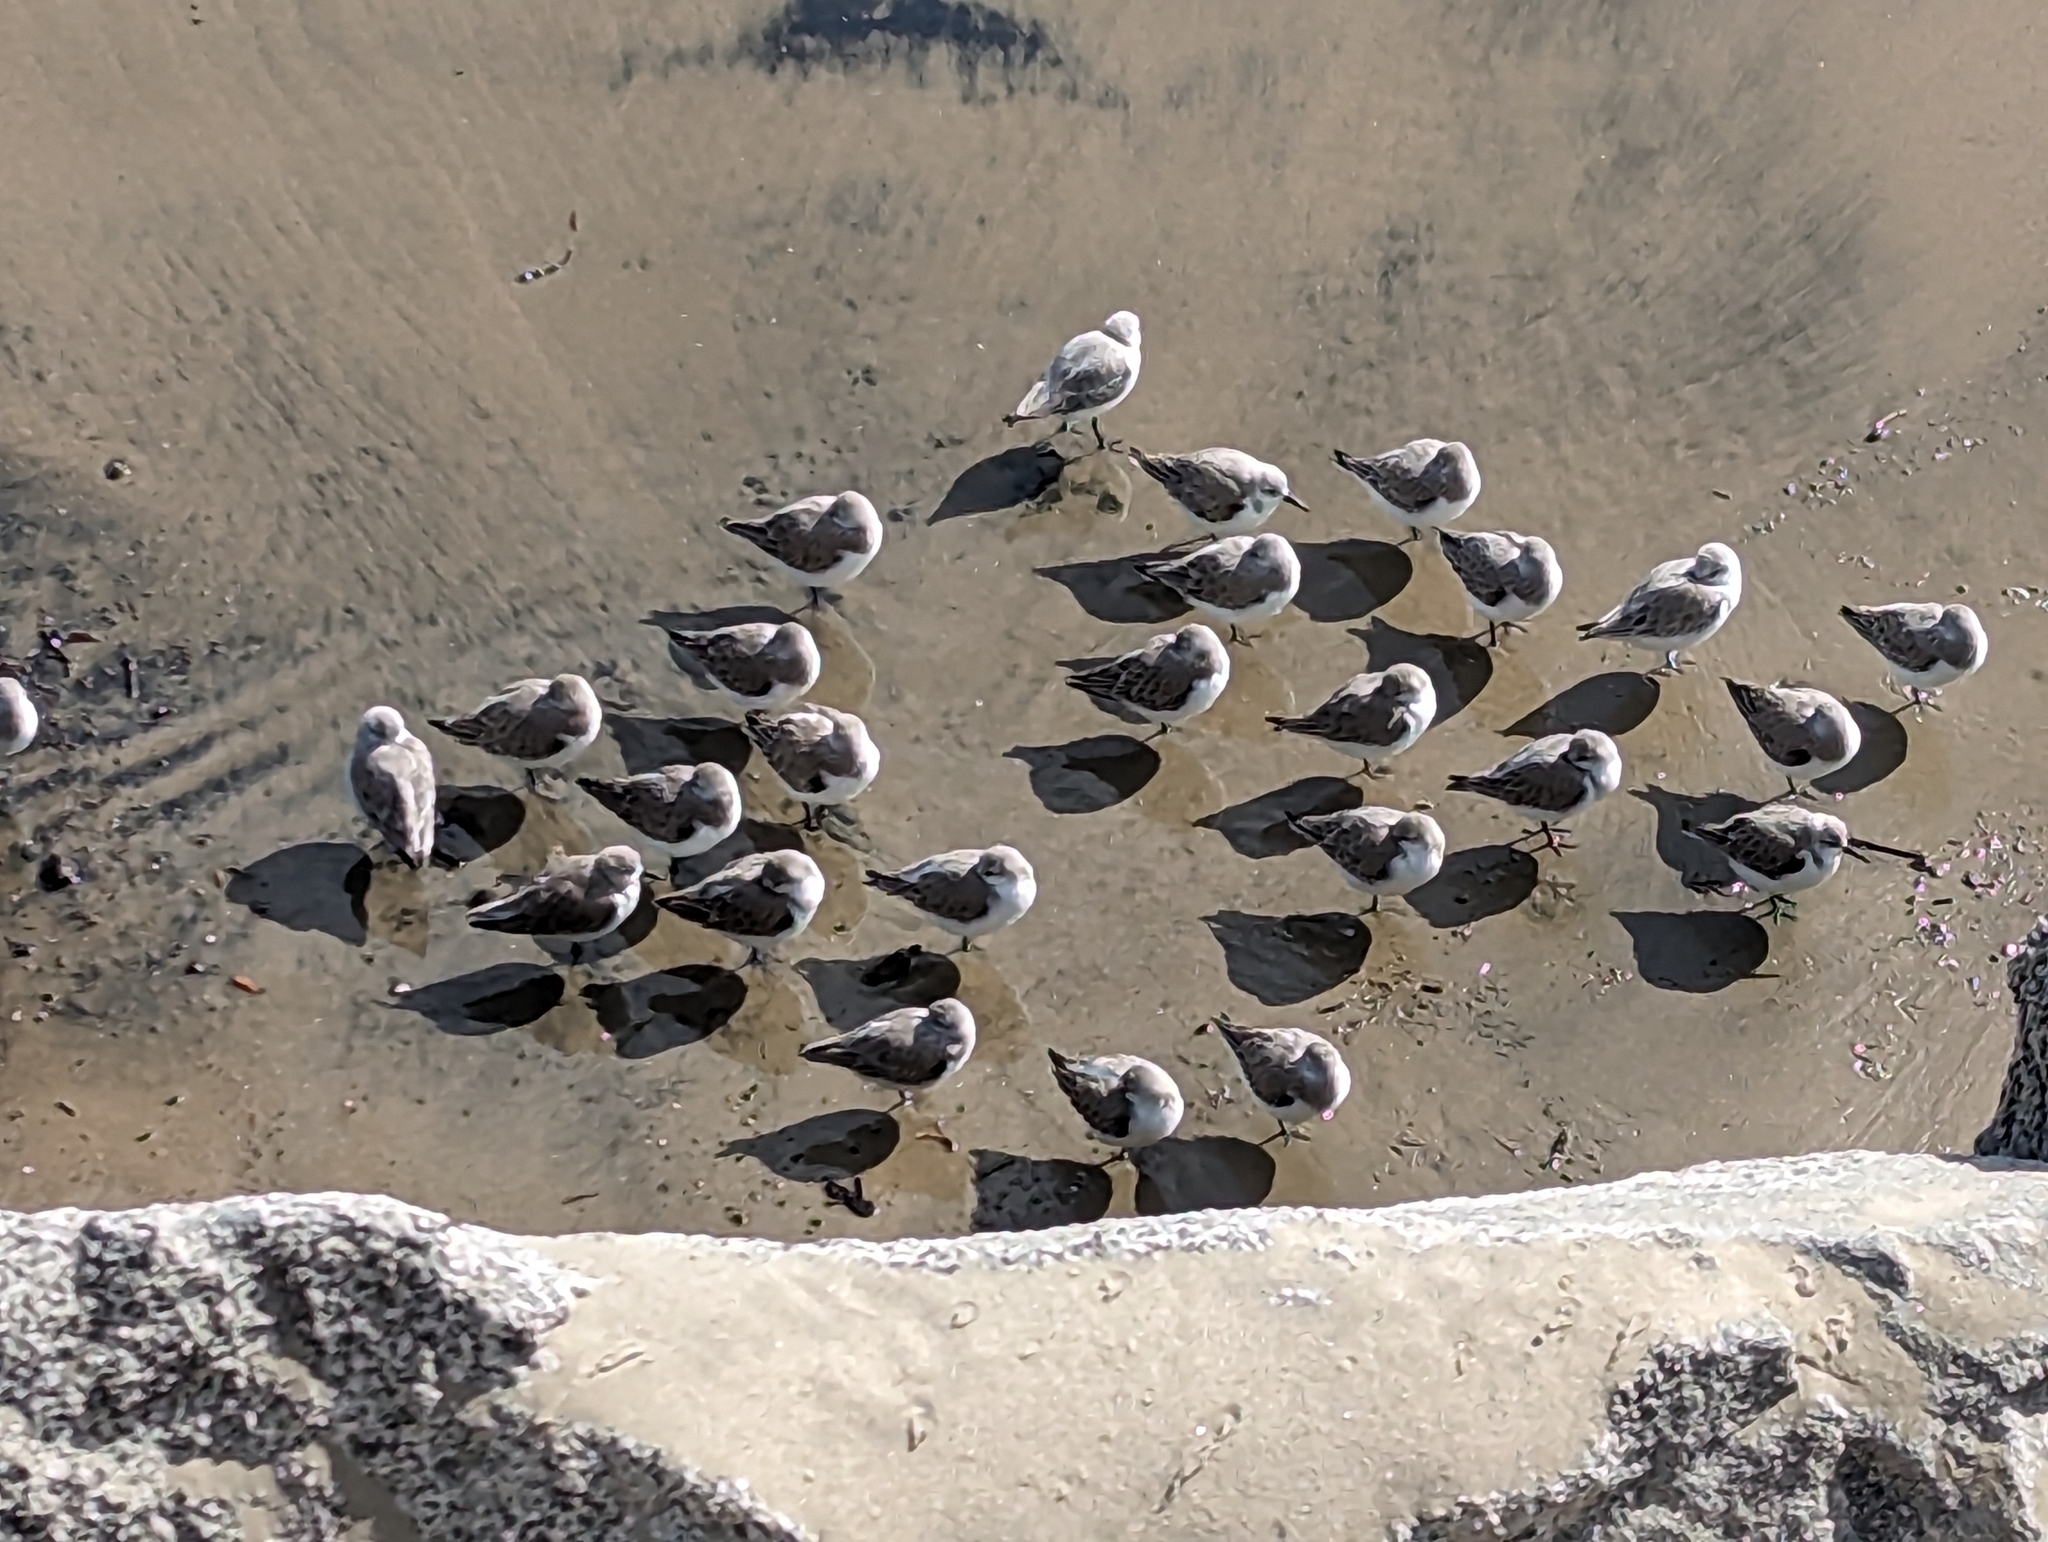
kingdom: Animalia
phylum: Chordata
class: Aves
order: Charadriiformes
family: Scolopacidae
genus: Calidris
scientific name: Calidris alba
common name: Sanderling
